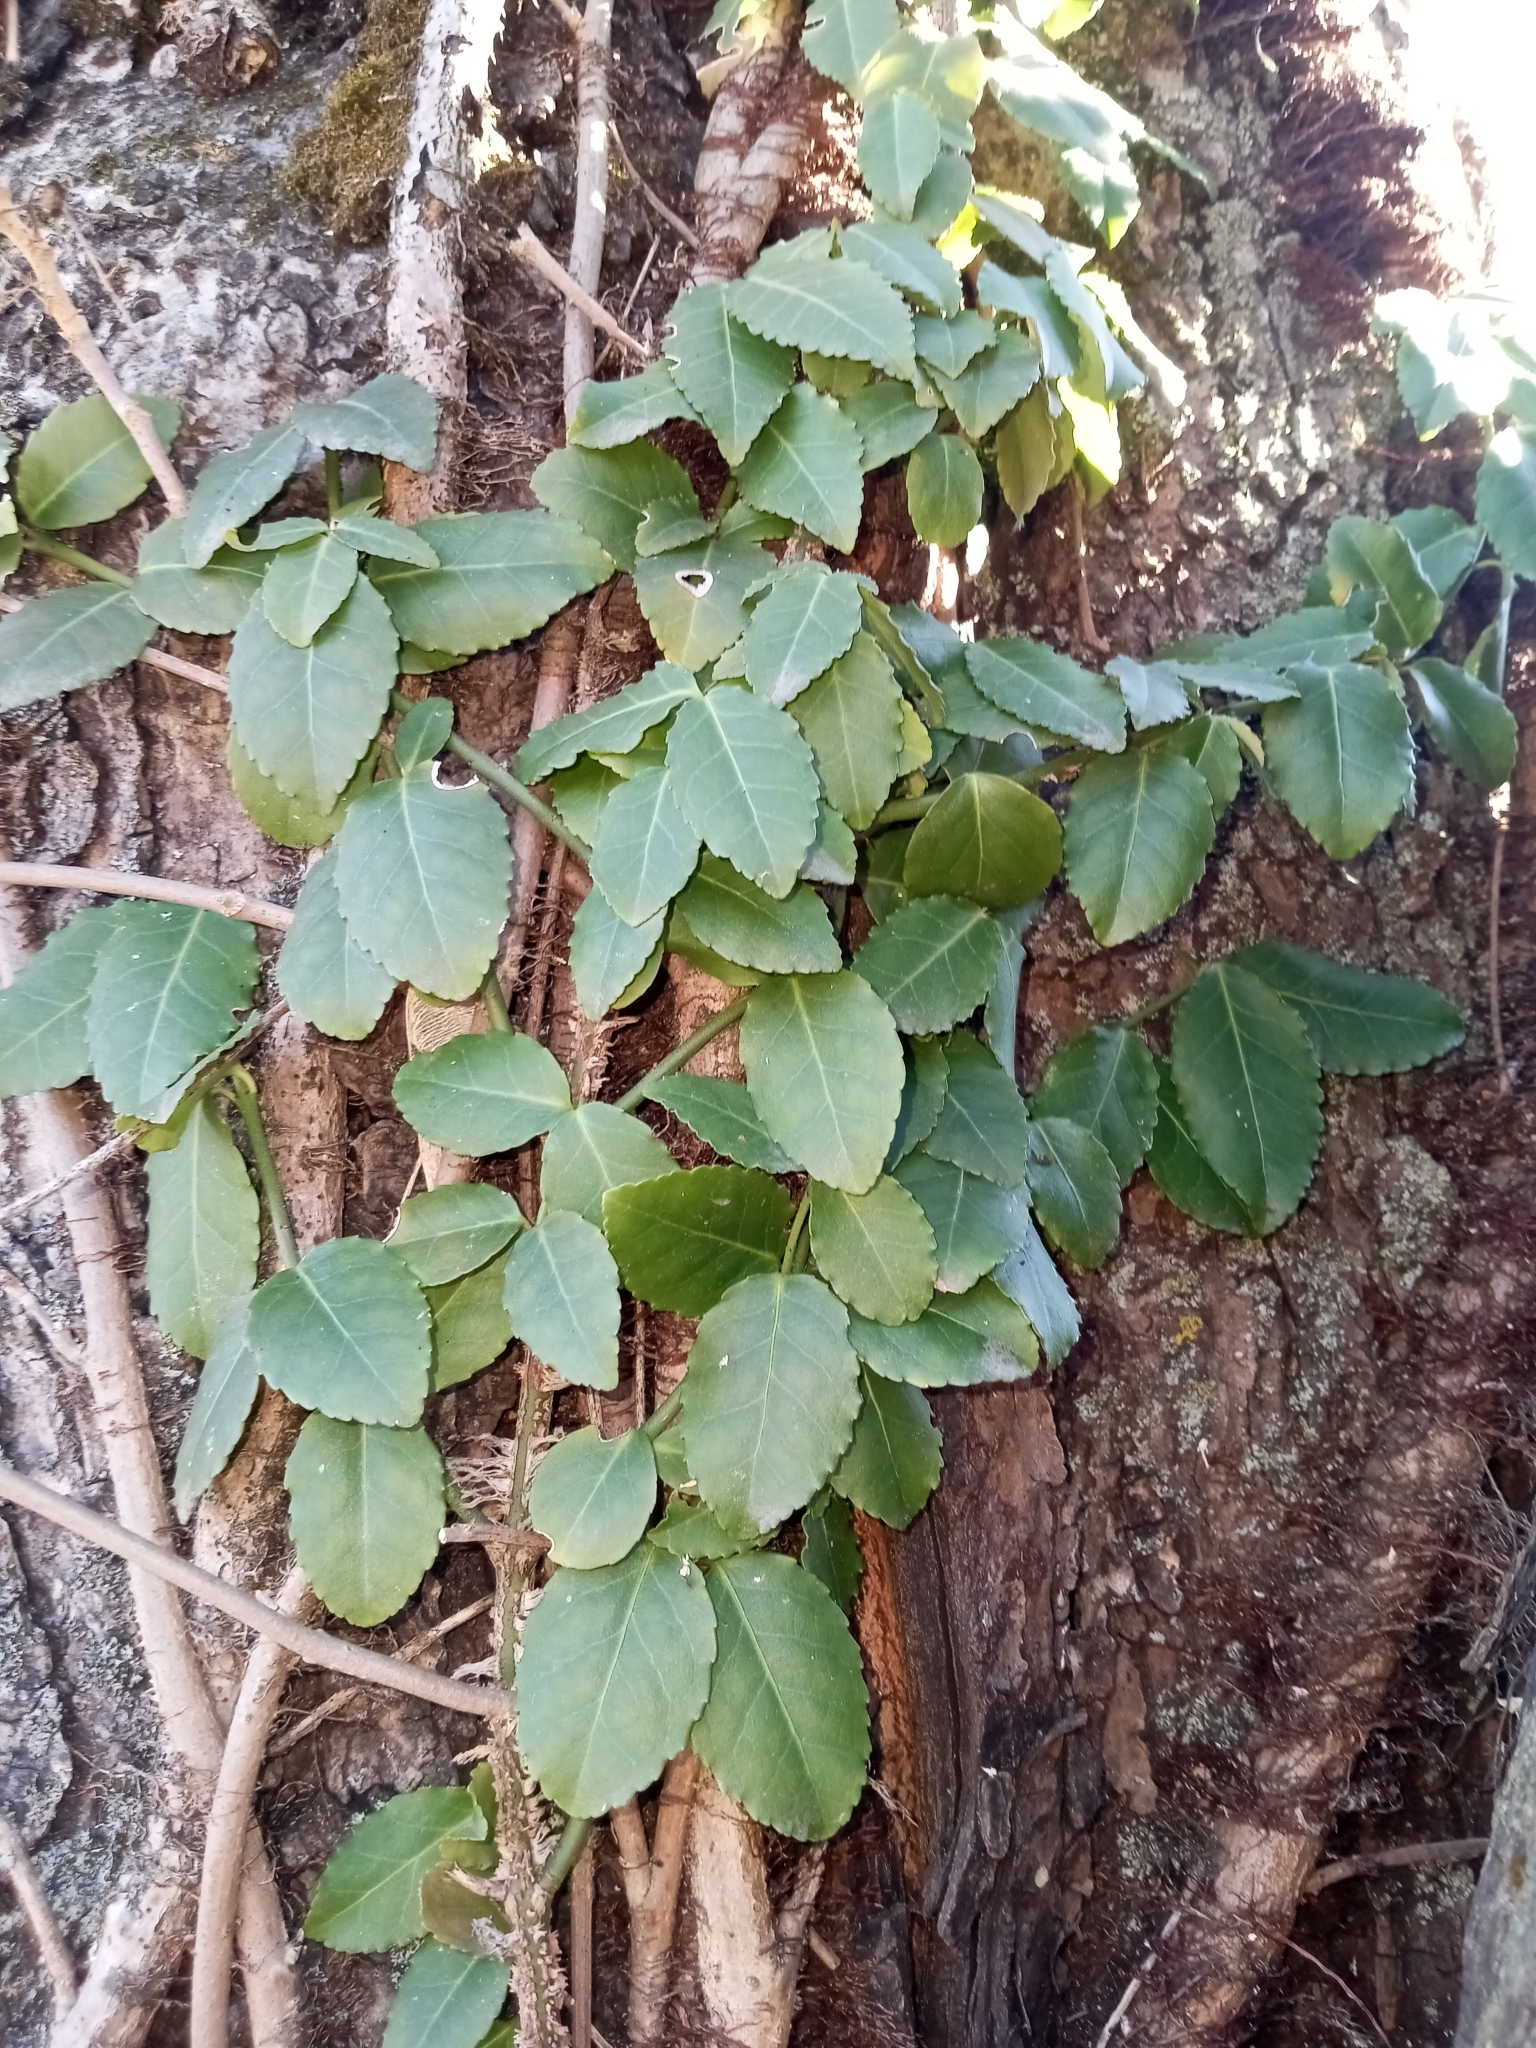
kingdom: Plantae
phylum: Tracheophyta
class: Magnoliopsida
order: Celastrales
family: Celastraceae
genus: Euonymus
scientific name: Euonymus fortunei
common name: Climbing euonymus
